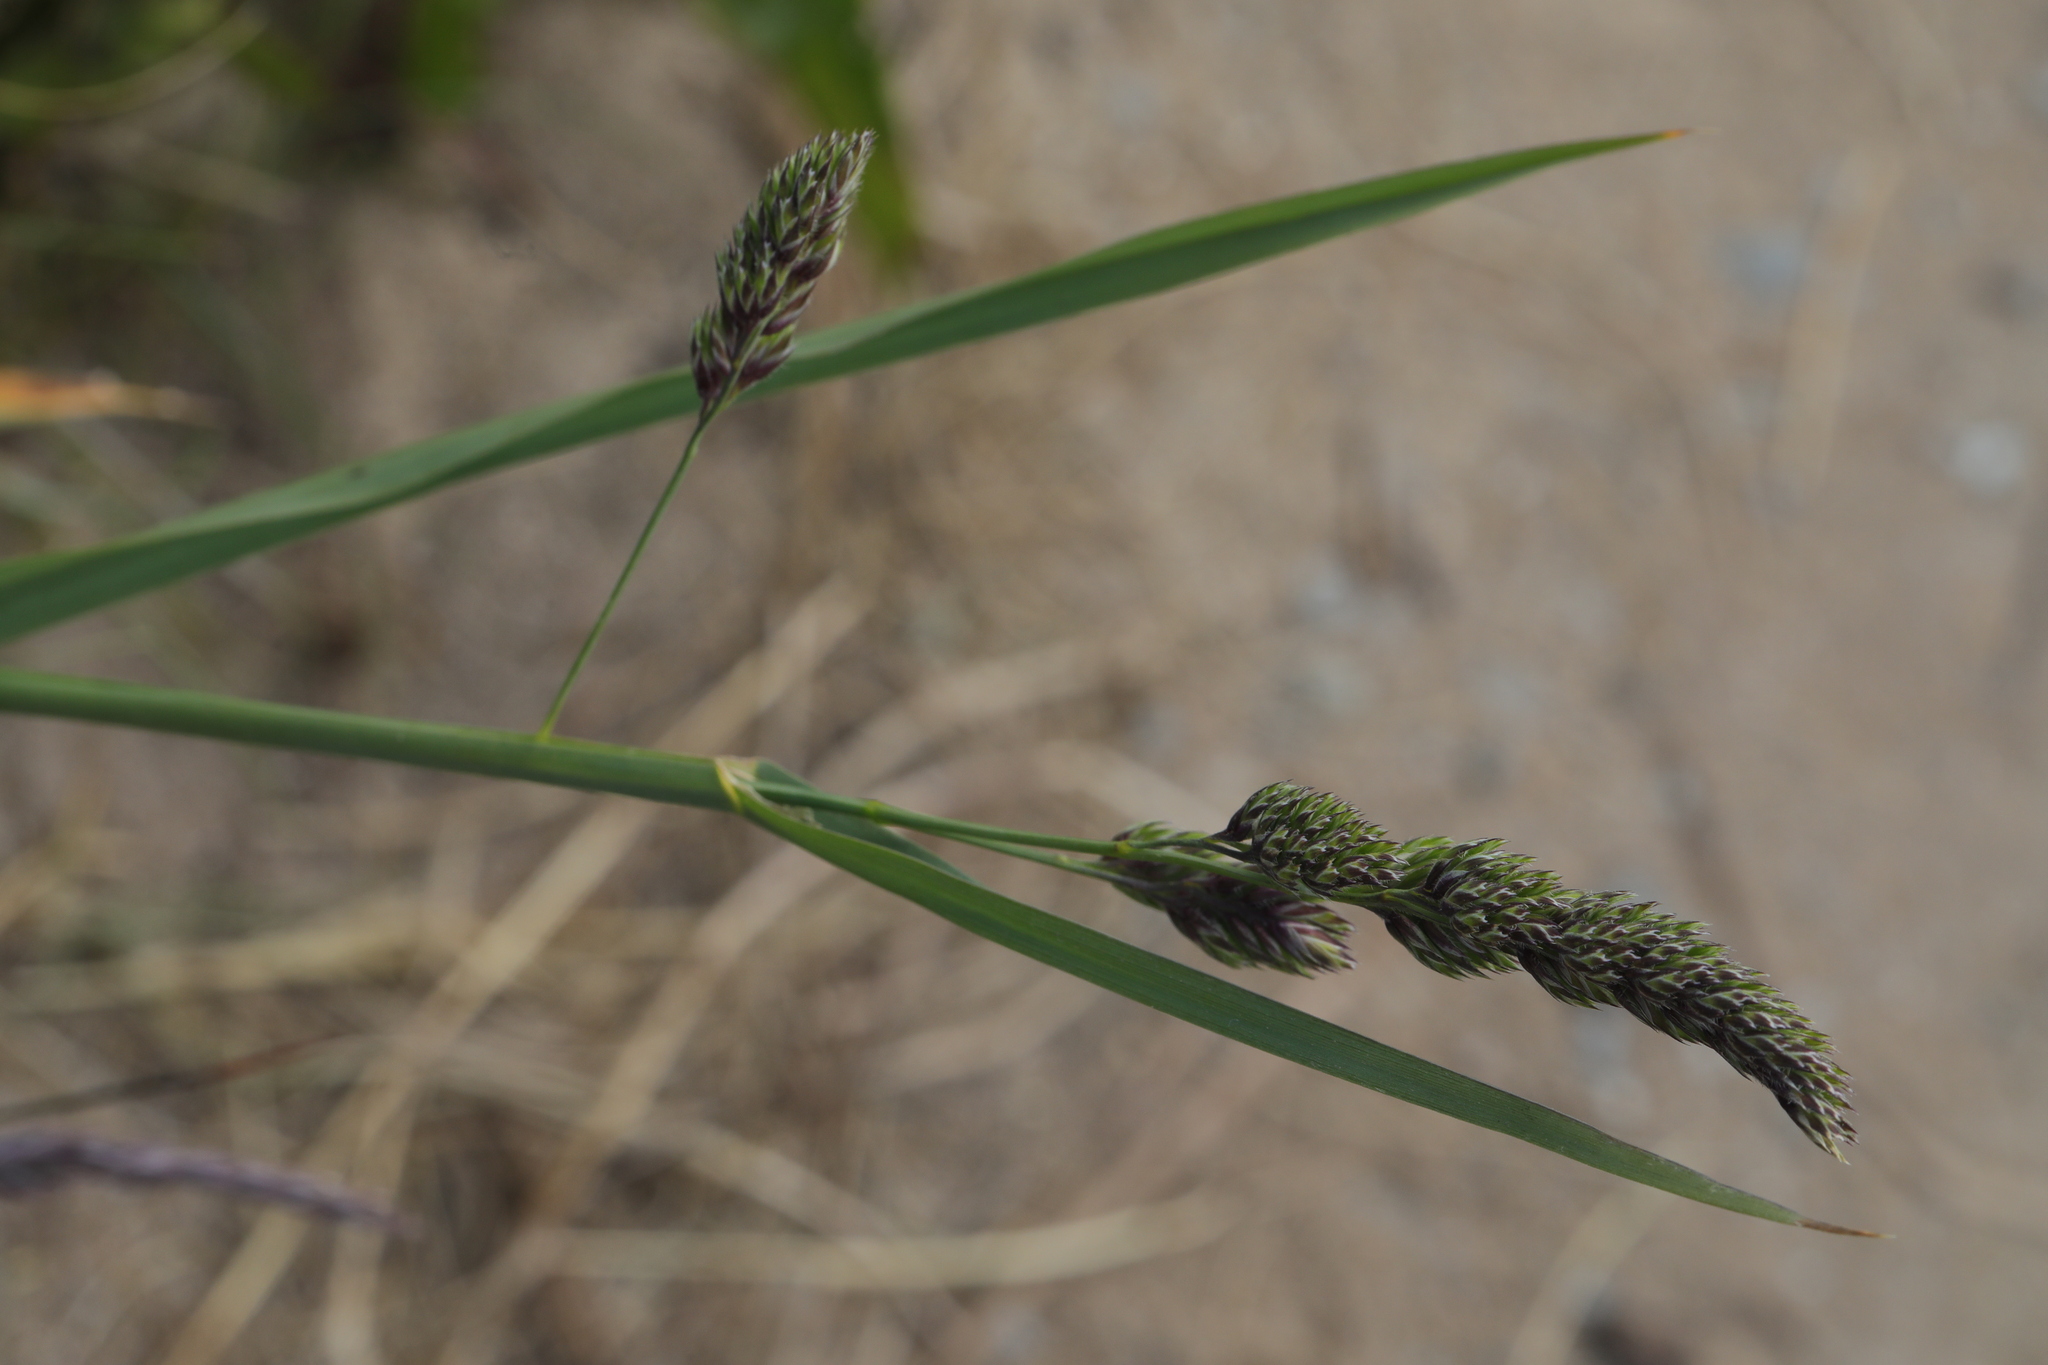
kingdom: Plantae
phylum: Tracheophyta
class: Liliopsida
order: Poales
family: Poaceae
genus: Dactylis
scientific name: Dactylis glomerata
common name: Orchardgrass
